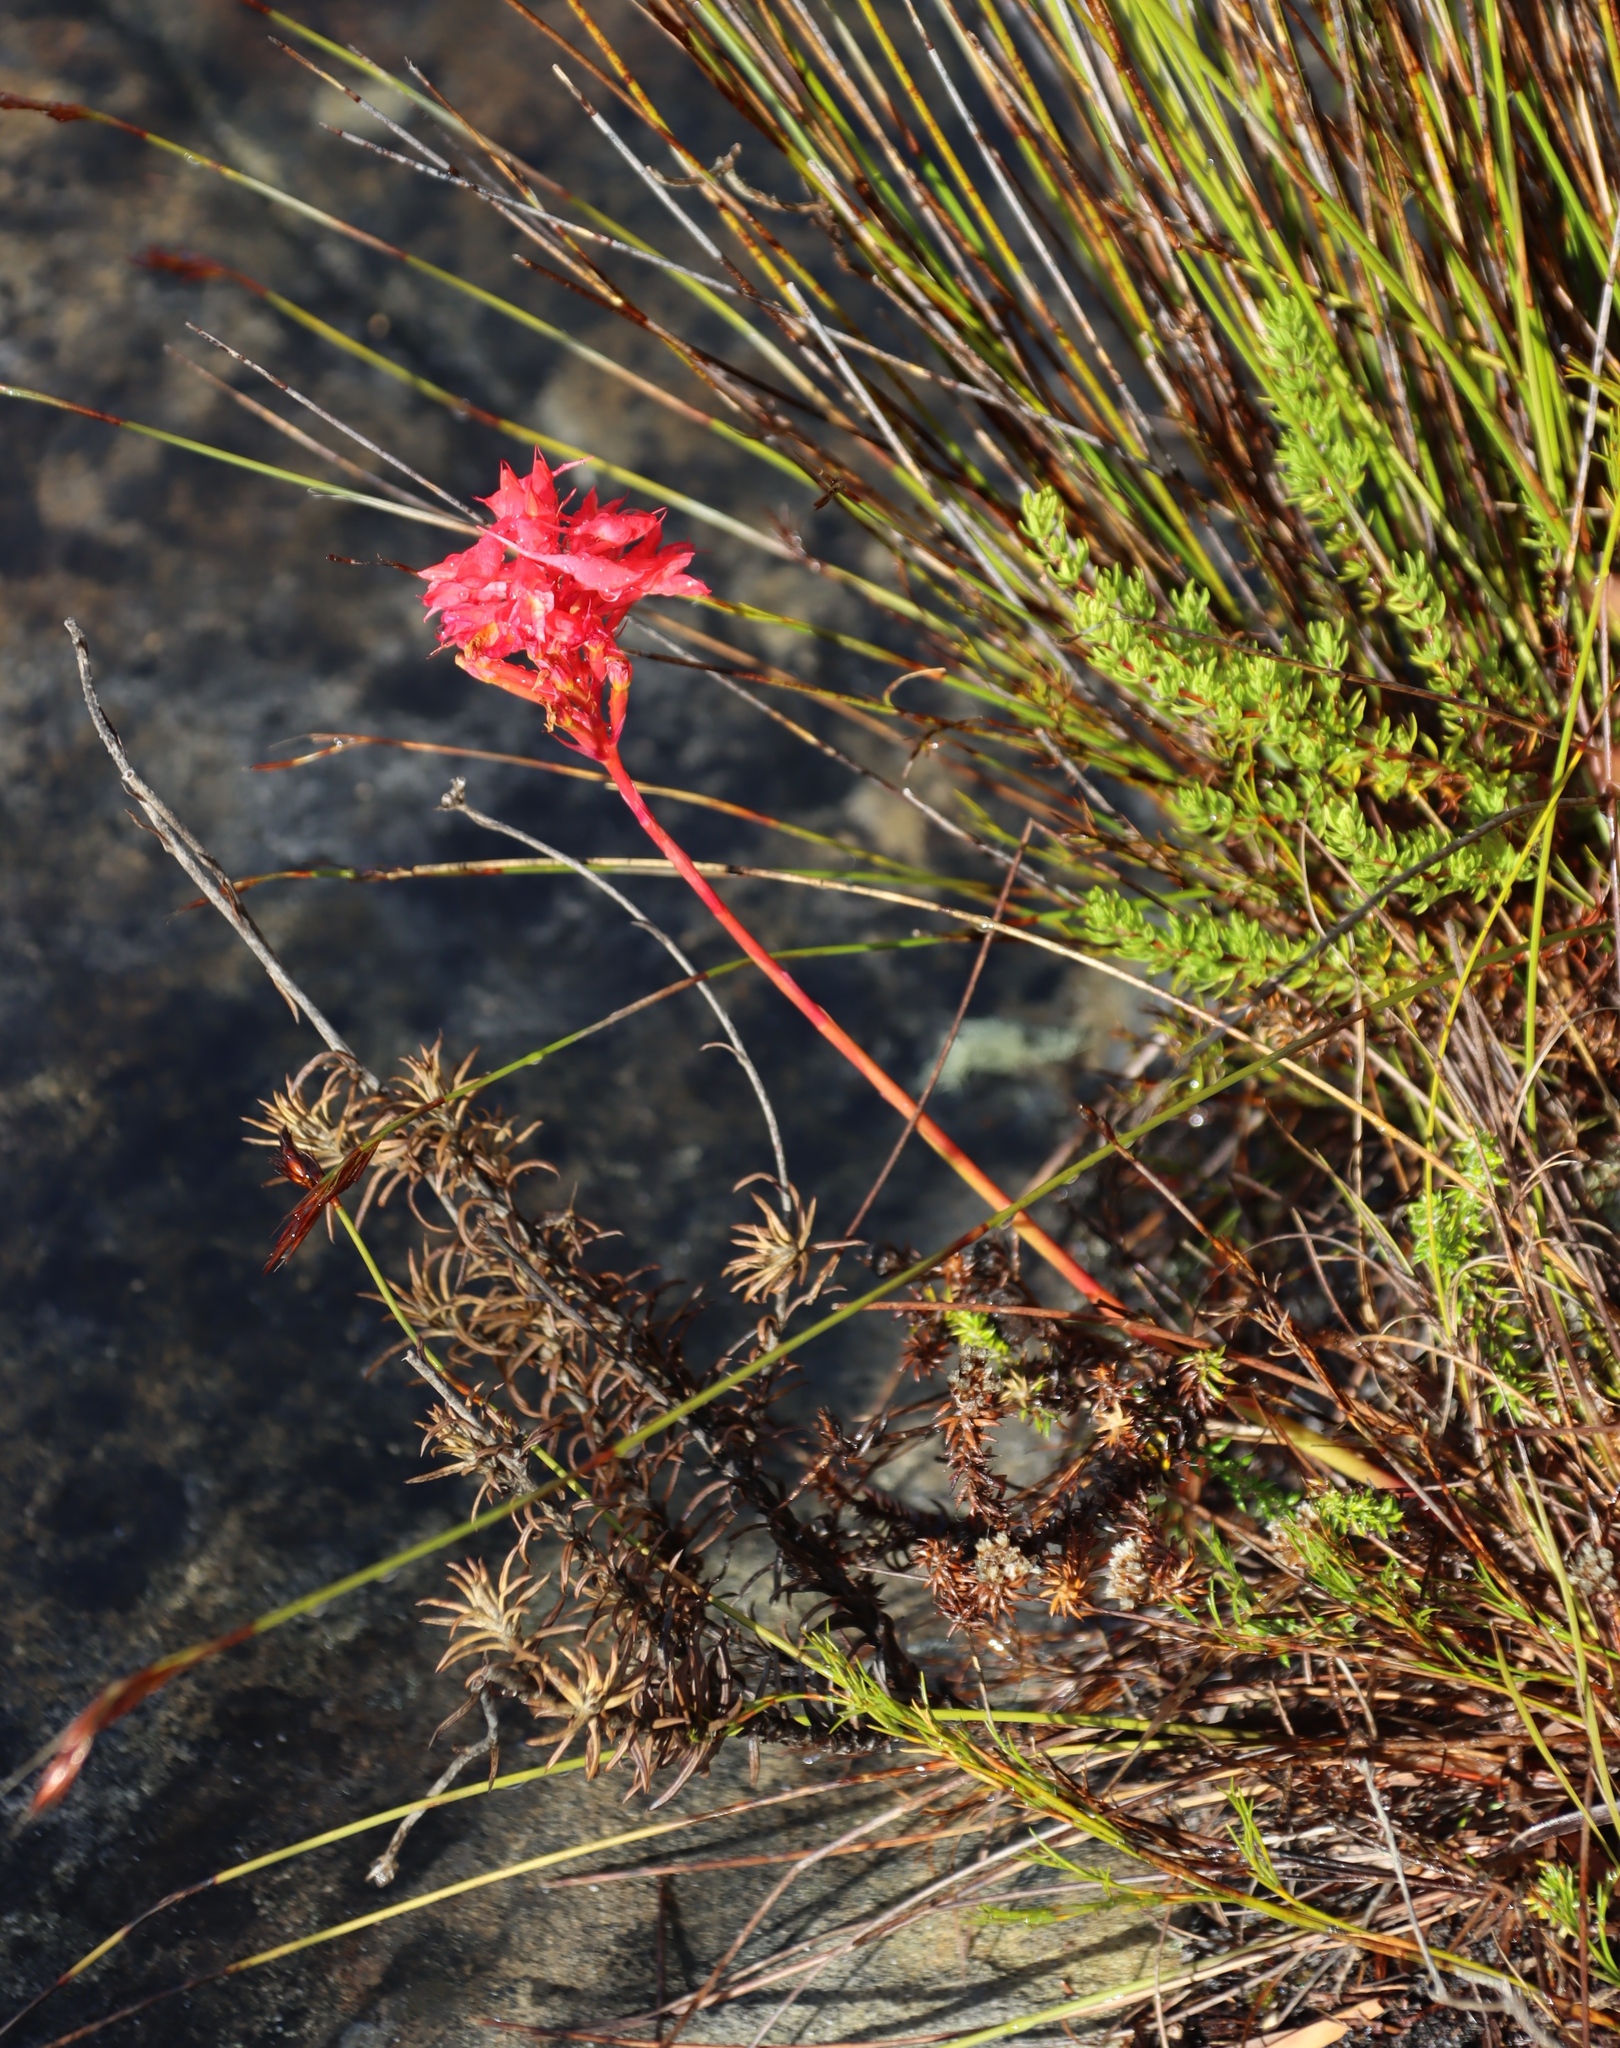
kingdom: Plantae
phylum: Tracheophyta
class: Liliopsida
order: Asparagales
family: Iridaceae
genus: Tritoniopsis
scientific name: Tritoniopsis triticea
